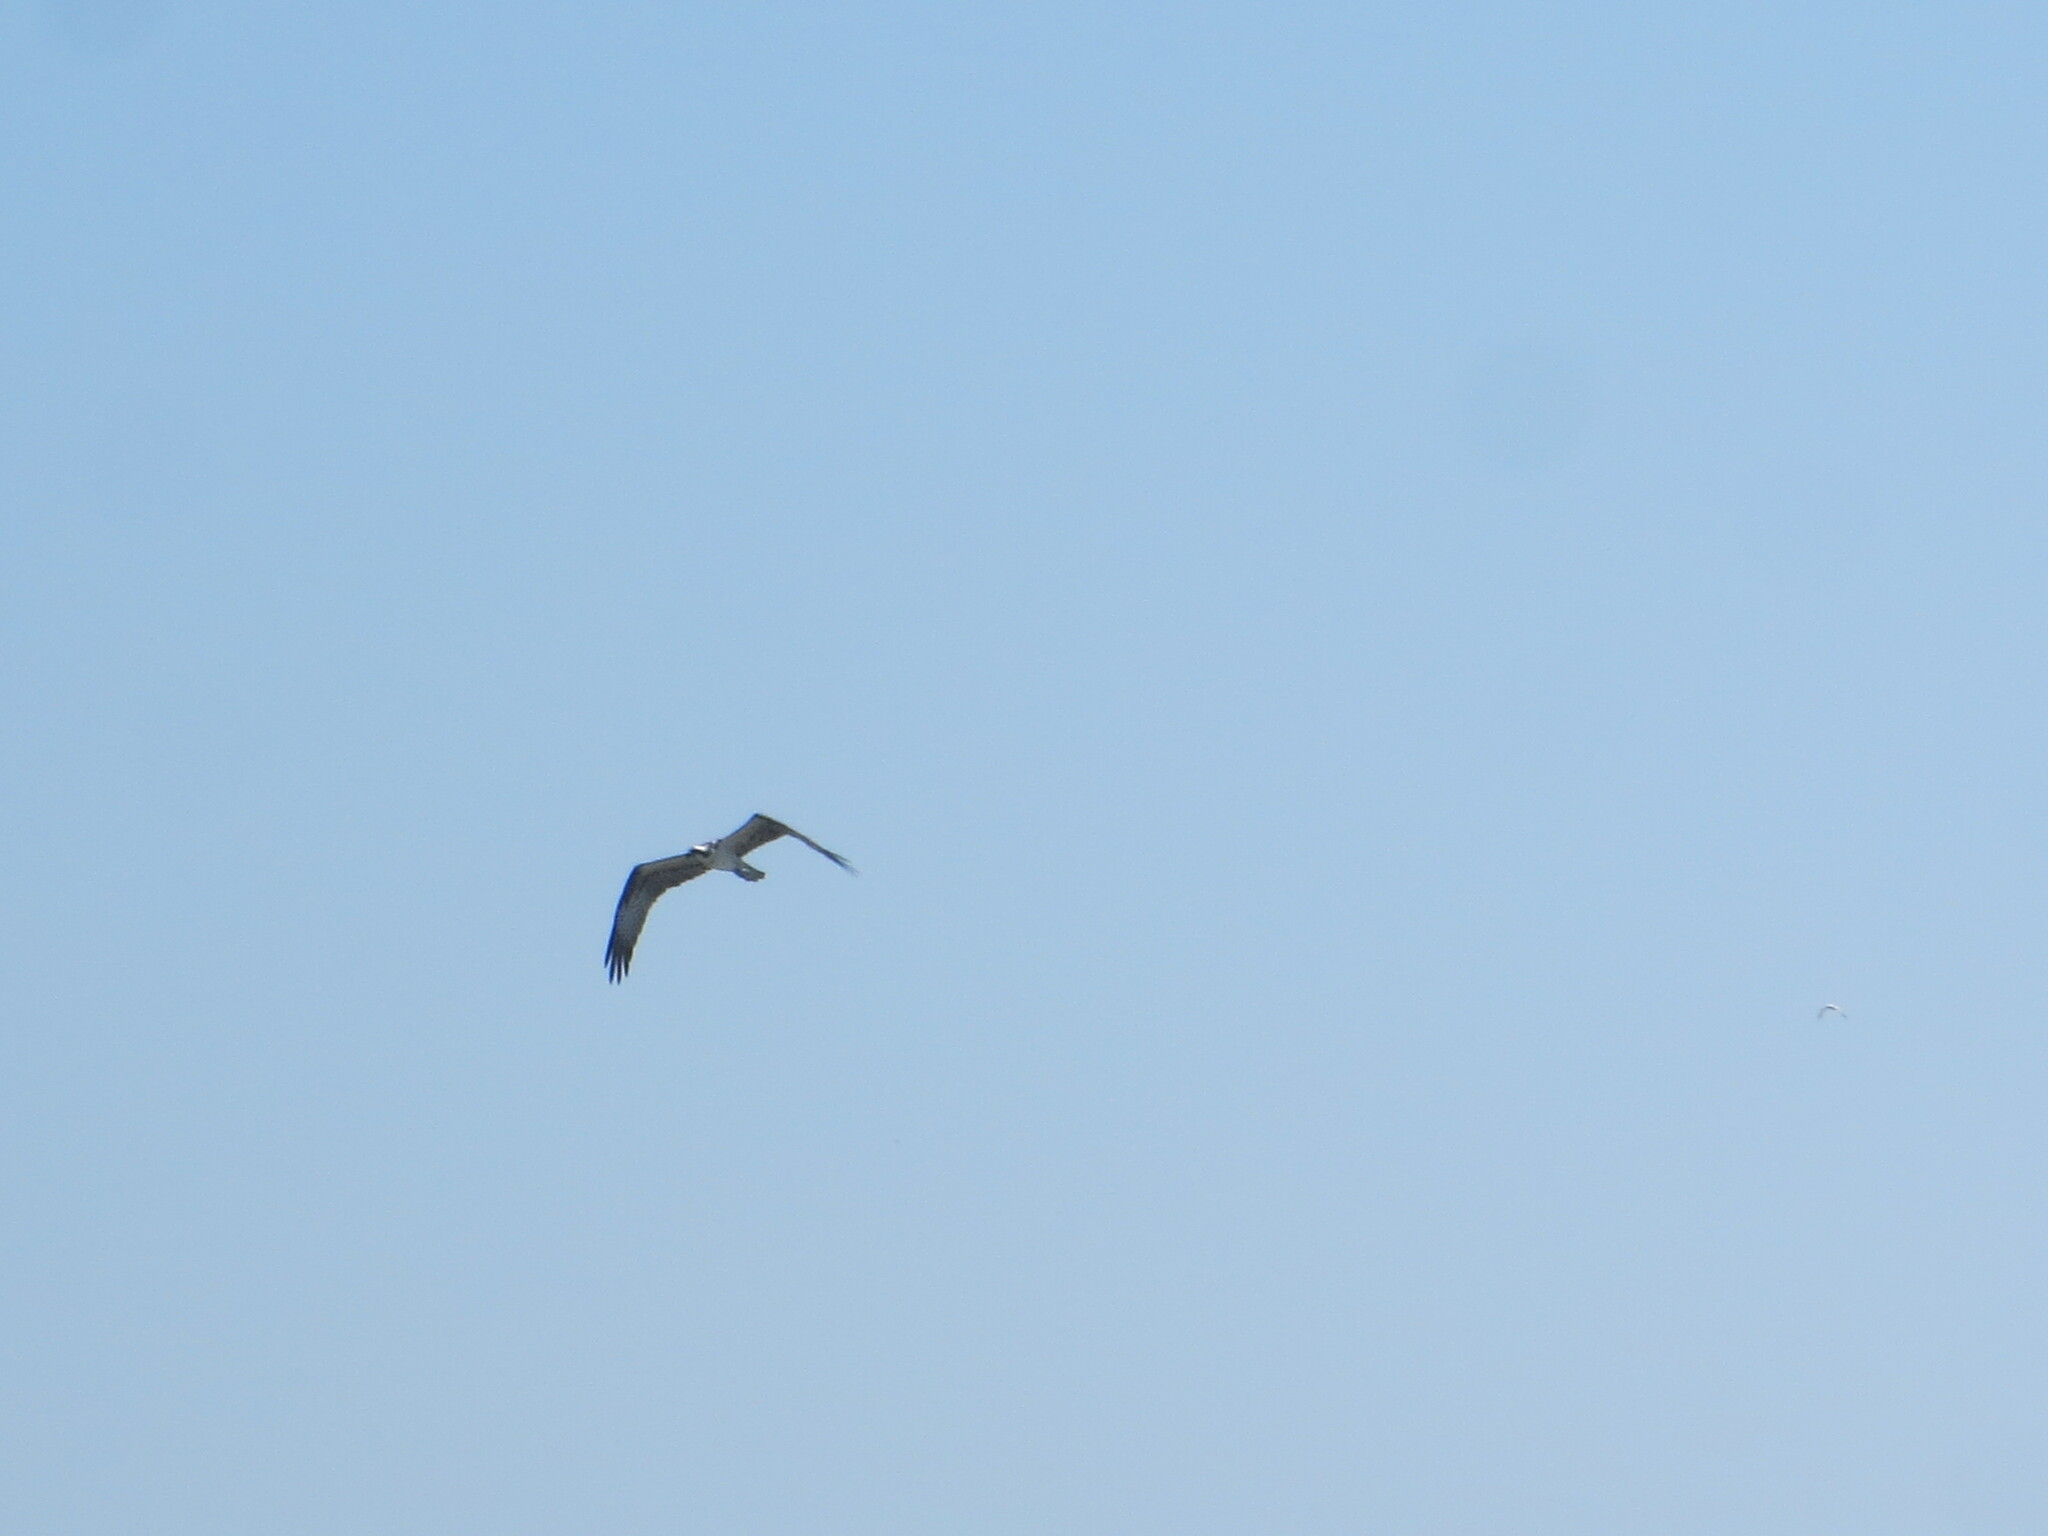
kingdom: Animalia
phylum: Chordata
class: Aves
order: Accipitriformes
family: Pandionidae
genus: Pandion
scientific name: Pandion haliaetus
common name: Osprey
